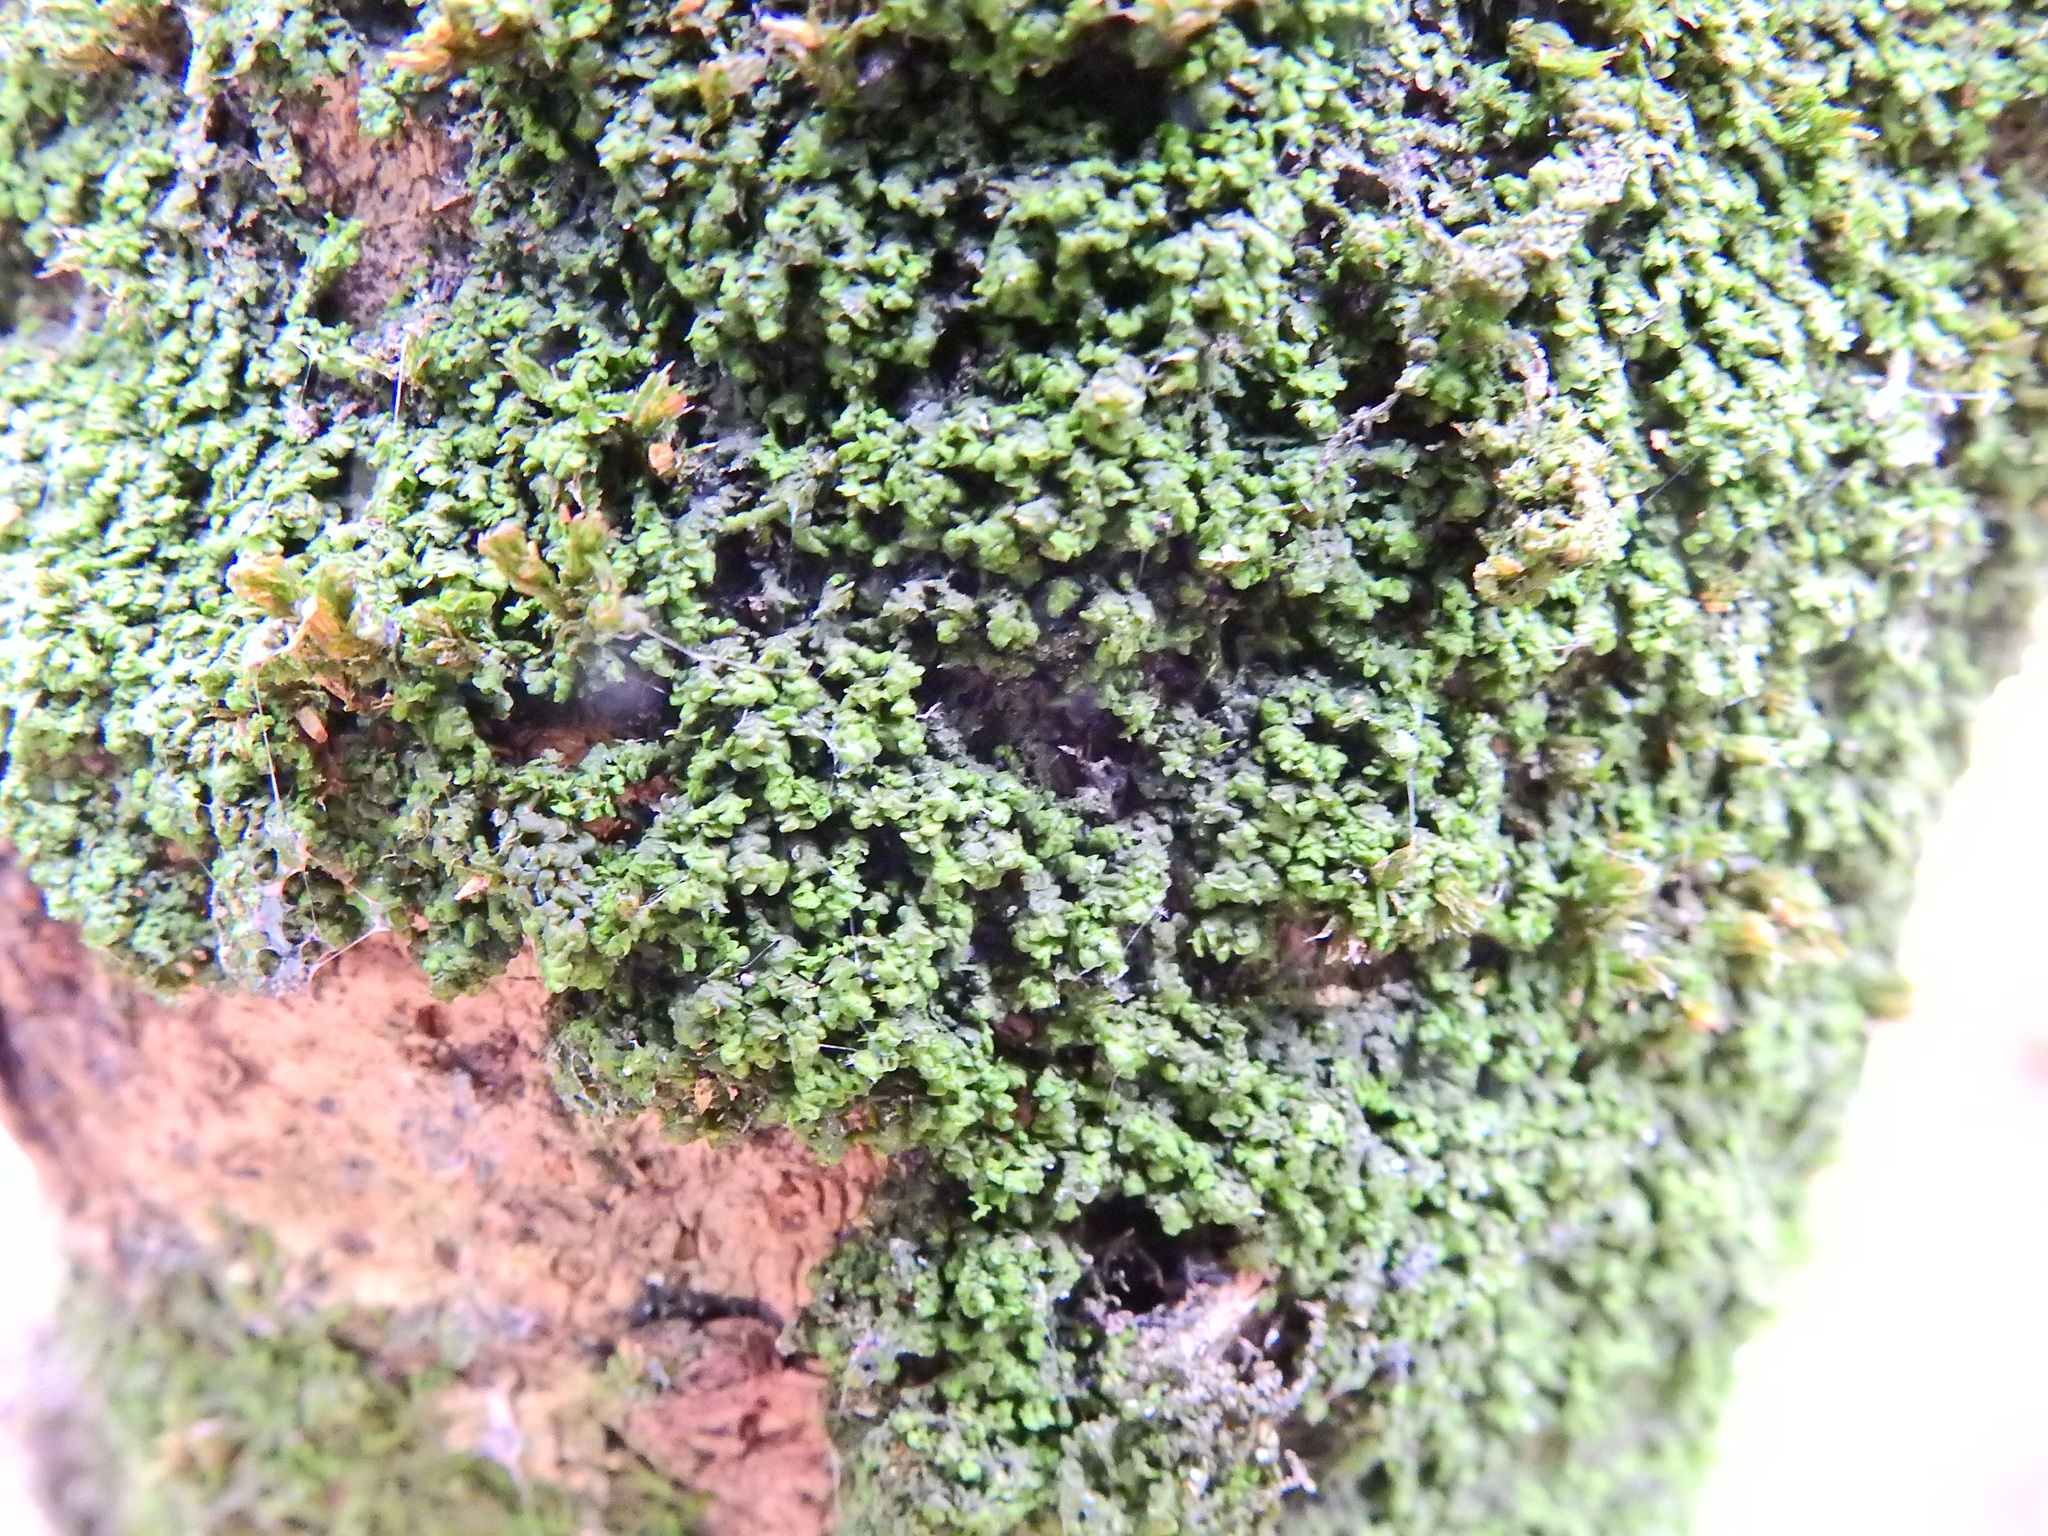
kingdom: Plantae
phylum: Marchantiophyta
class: Jungermanniopsida
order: Porellales
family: Frullaniaceae
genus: Frullania
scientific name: Frullania dilatata
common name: Dilated scalewort
